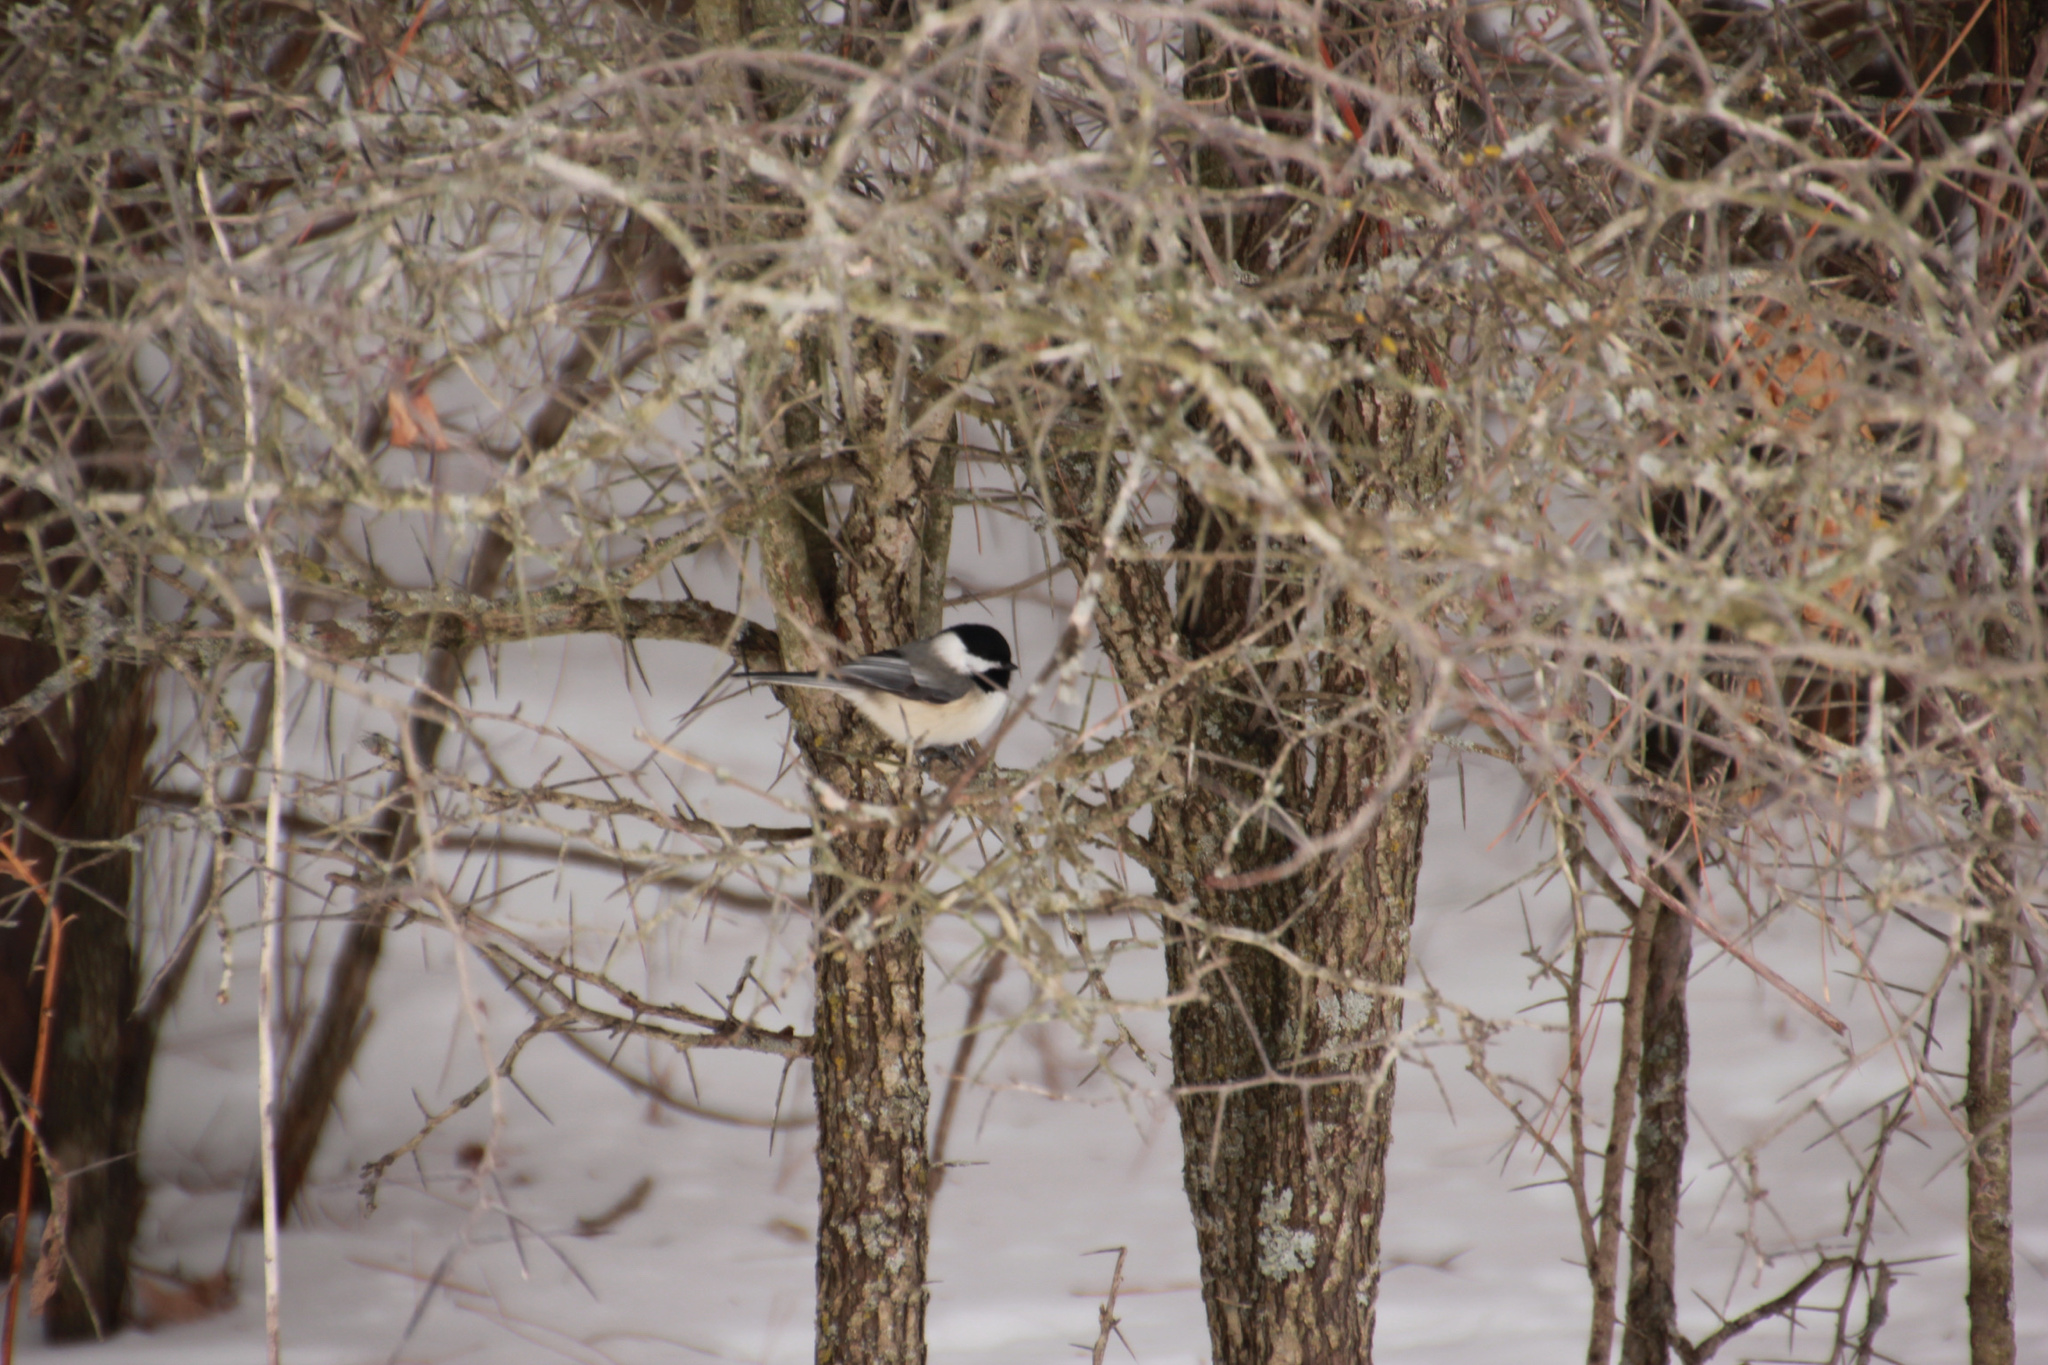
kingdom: Animalia
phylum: Chordata
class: Aves
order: Passeriformes
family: Paridae
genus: Poecile
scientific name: Poecile atricapillus
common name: Black-capped chickadee
